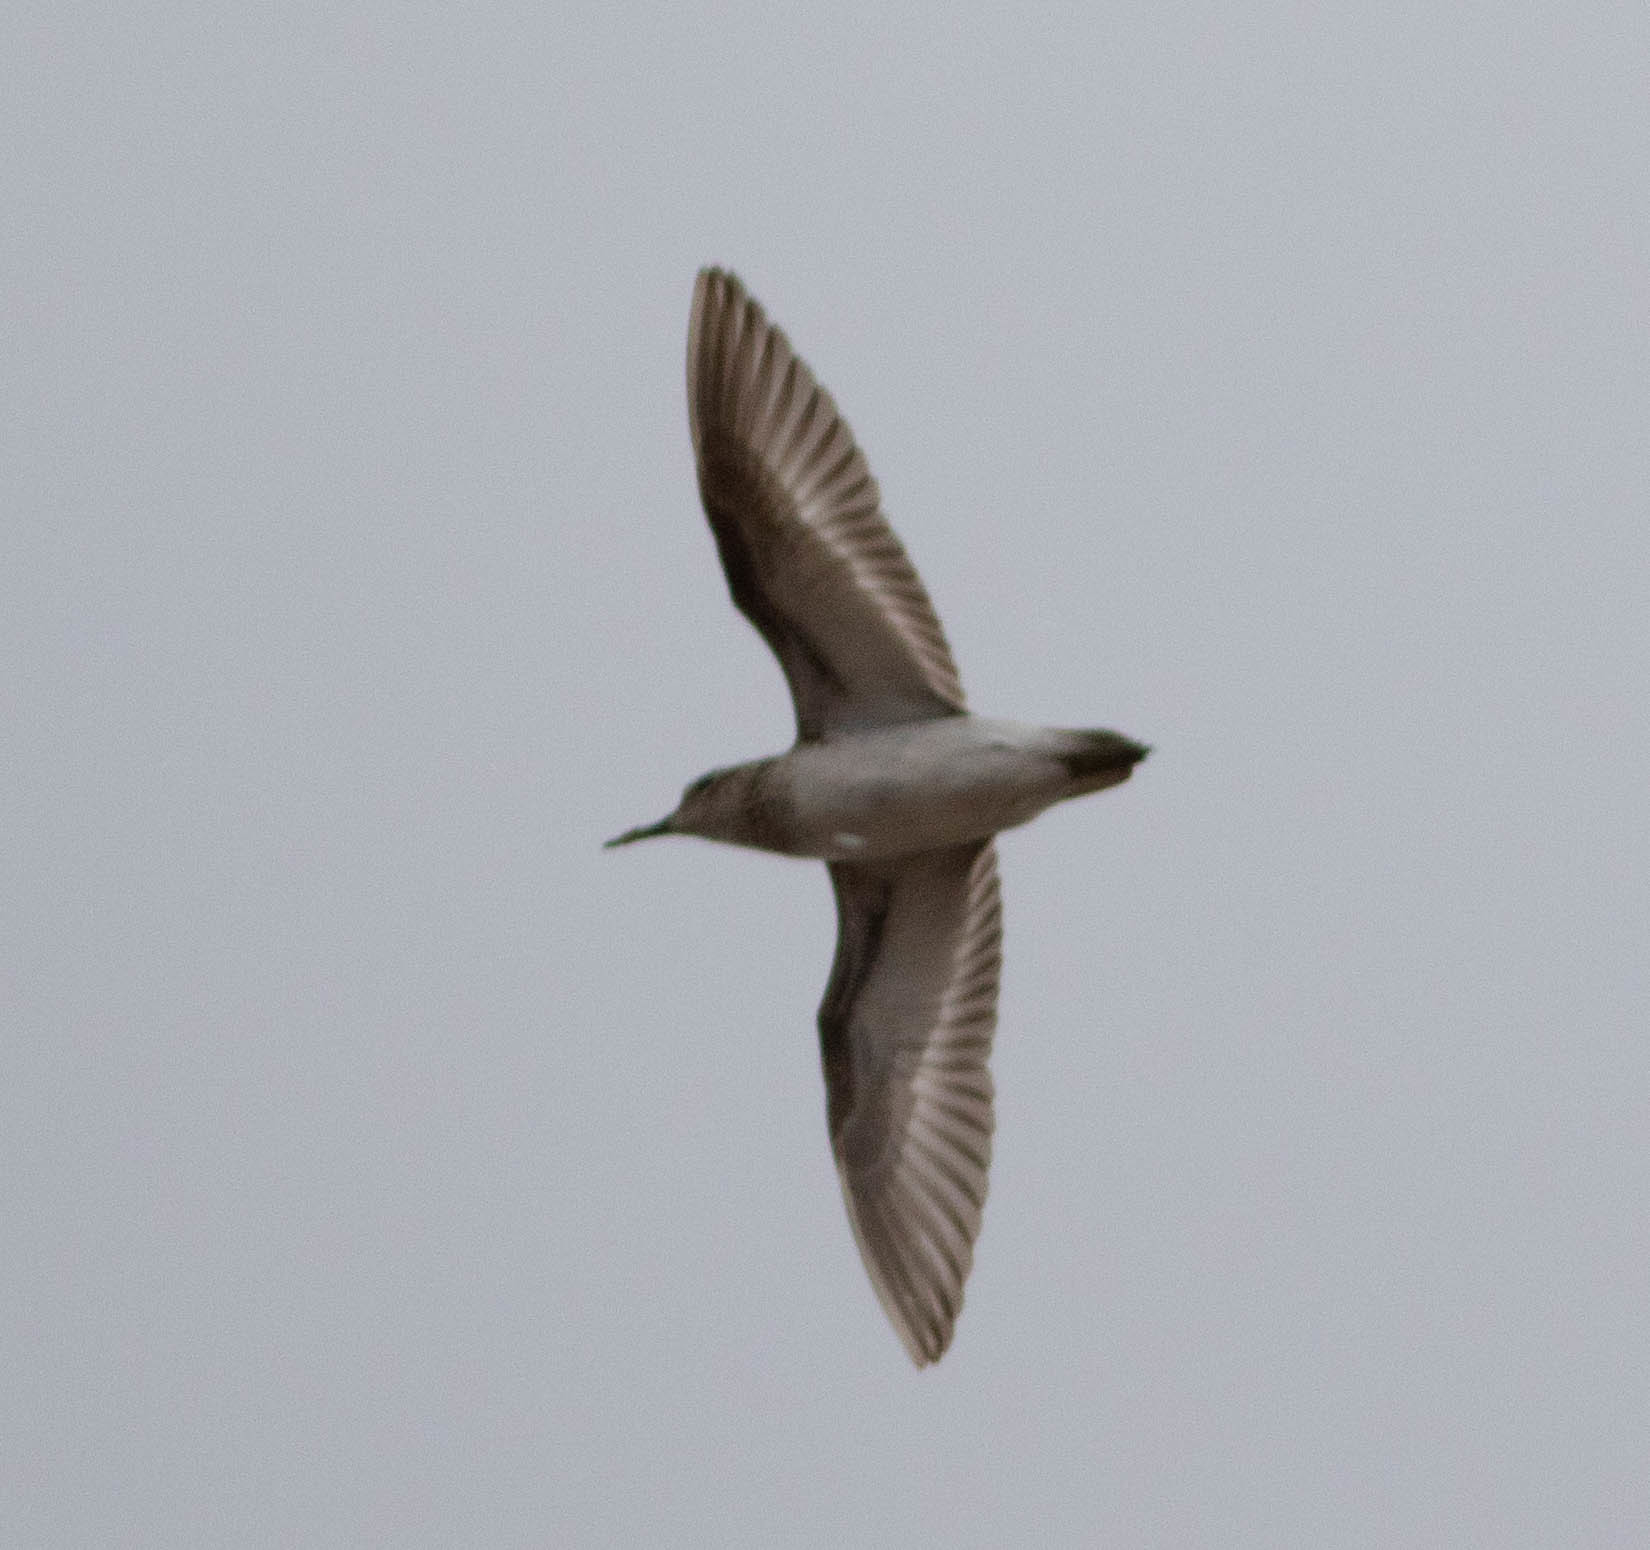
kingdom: Animalia
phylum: Chordata
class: Aves
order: Charadriiformes
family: Scolopacidae
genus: Calidris
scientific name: Calidris minutilla
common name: Least sandpiper
